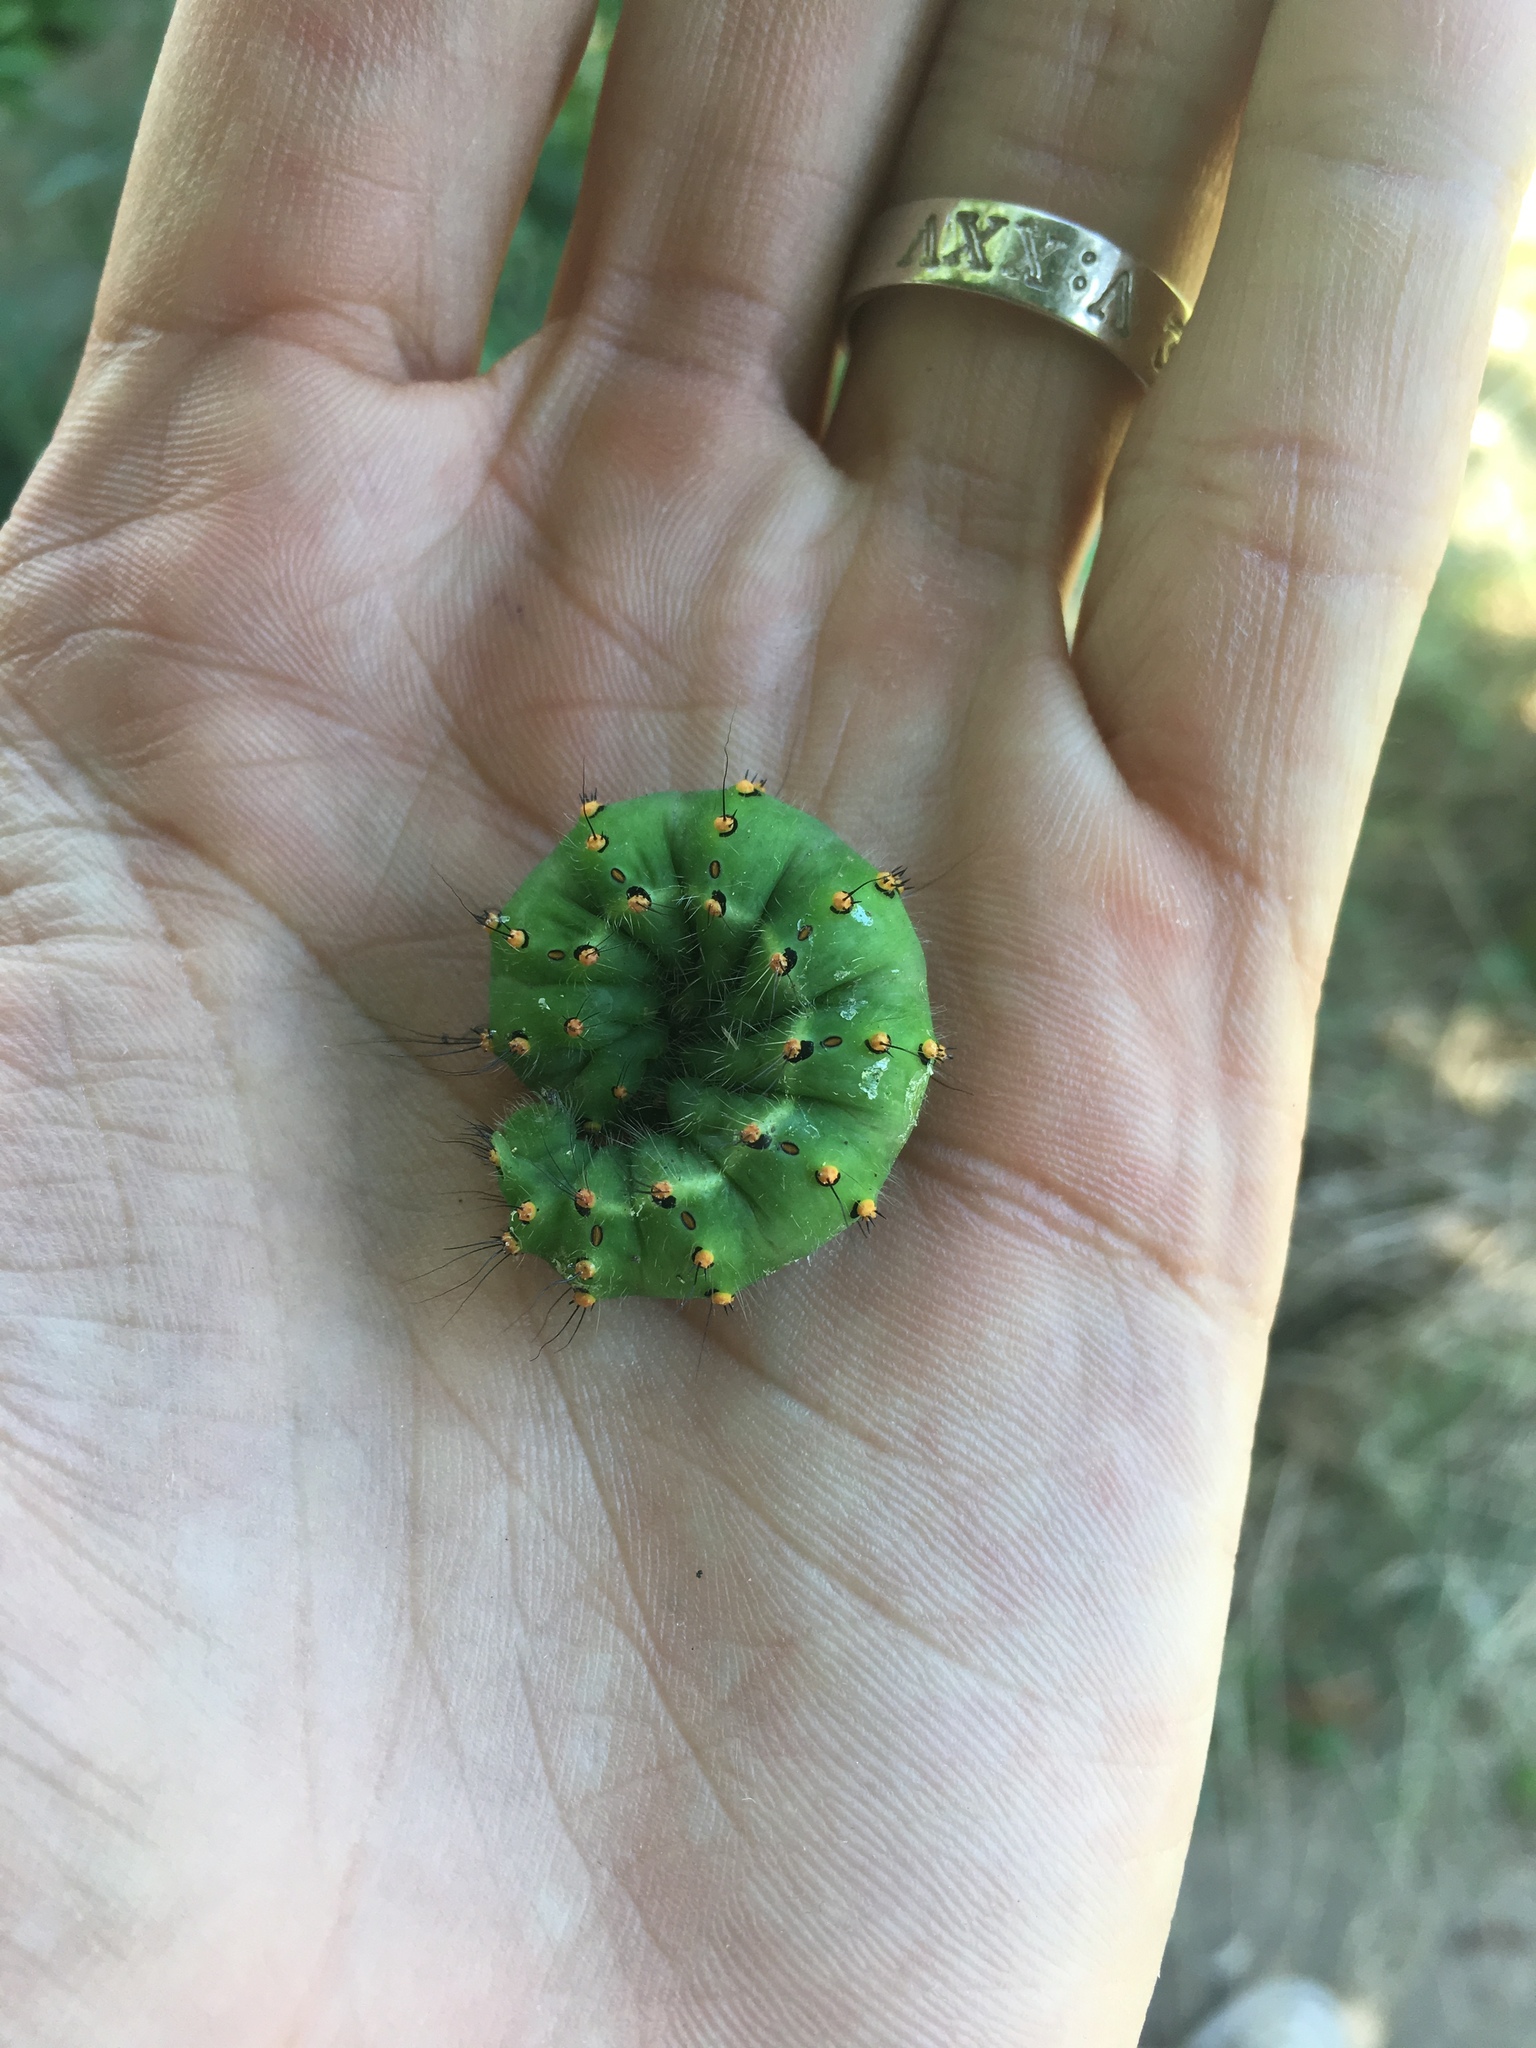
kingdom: Animalia
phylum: Arthropoda
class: Insecta
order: Lepidoptera
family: Saturniidae
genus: Saturnia
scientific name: Saturnia pavonia
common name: Emperor moth
